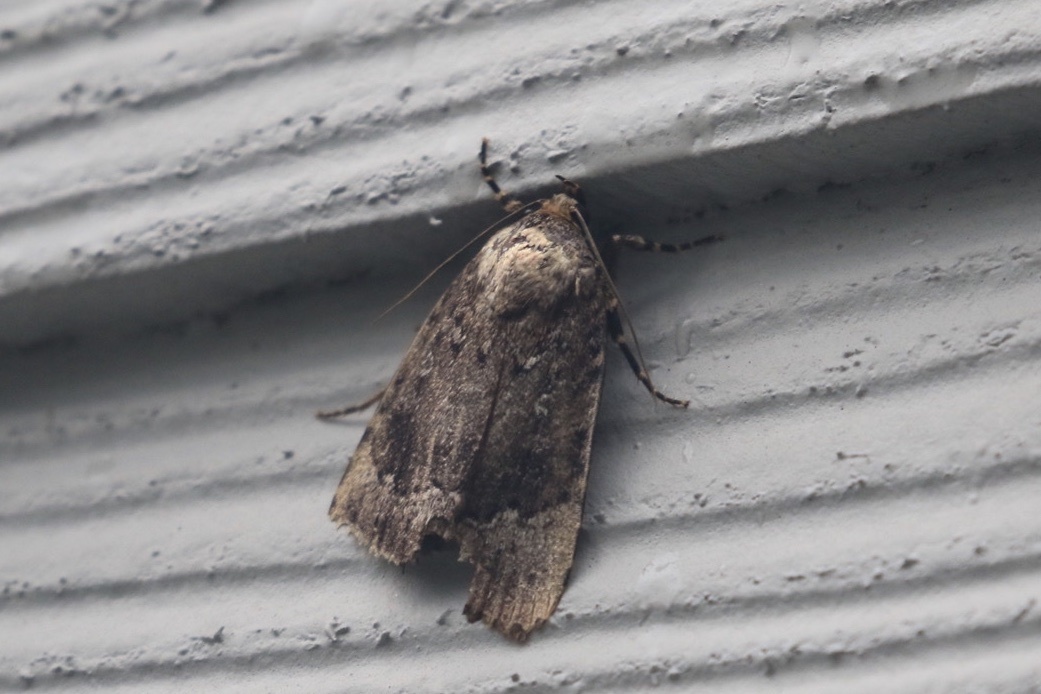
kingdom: Animalia
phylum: Arthropoda
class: Insecta
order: Lepidoptera
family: Noctuidae
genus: Amphipyra
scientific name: Amphipyra pyramidoides
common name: American copper underwing
